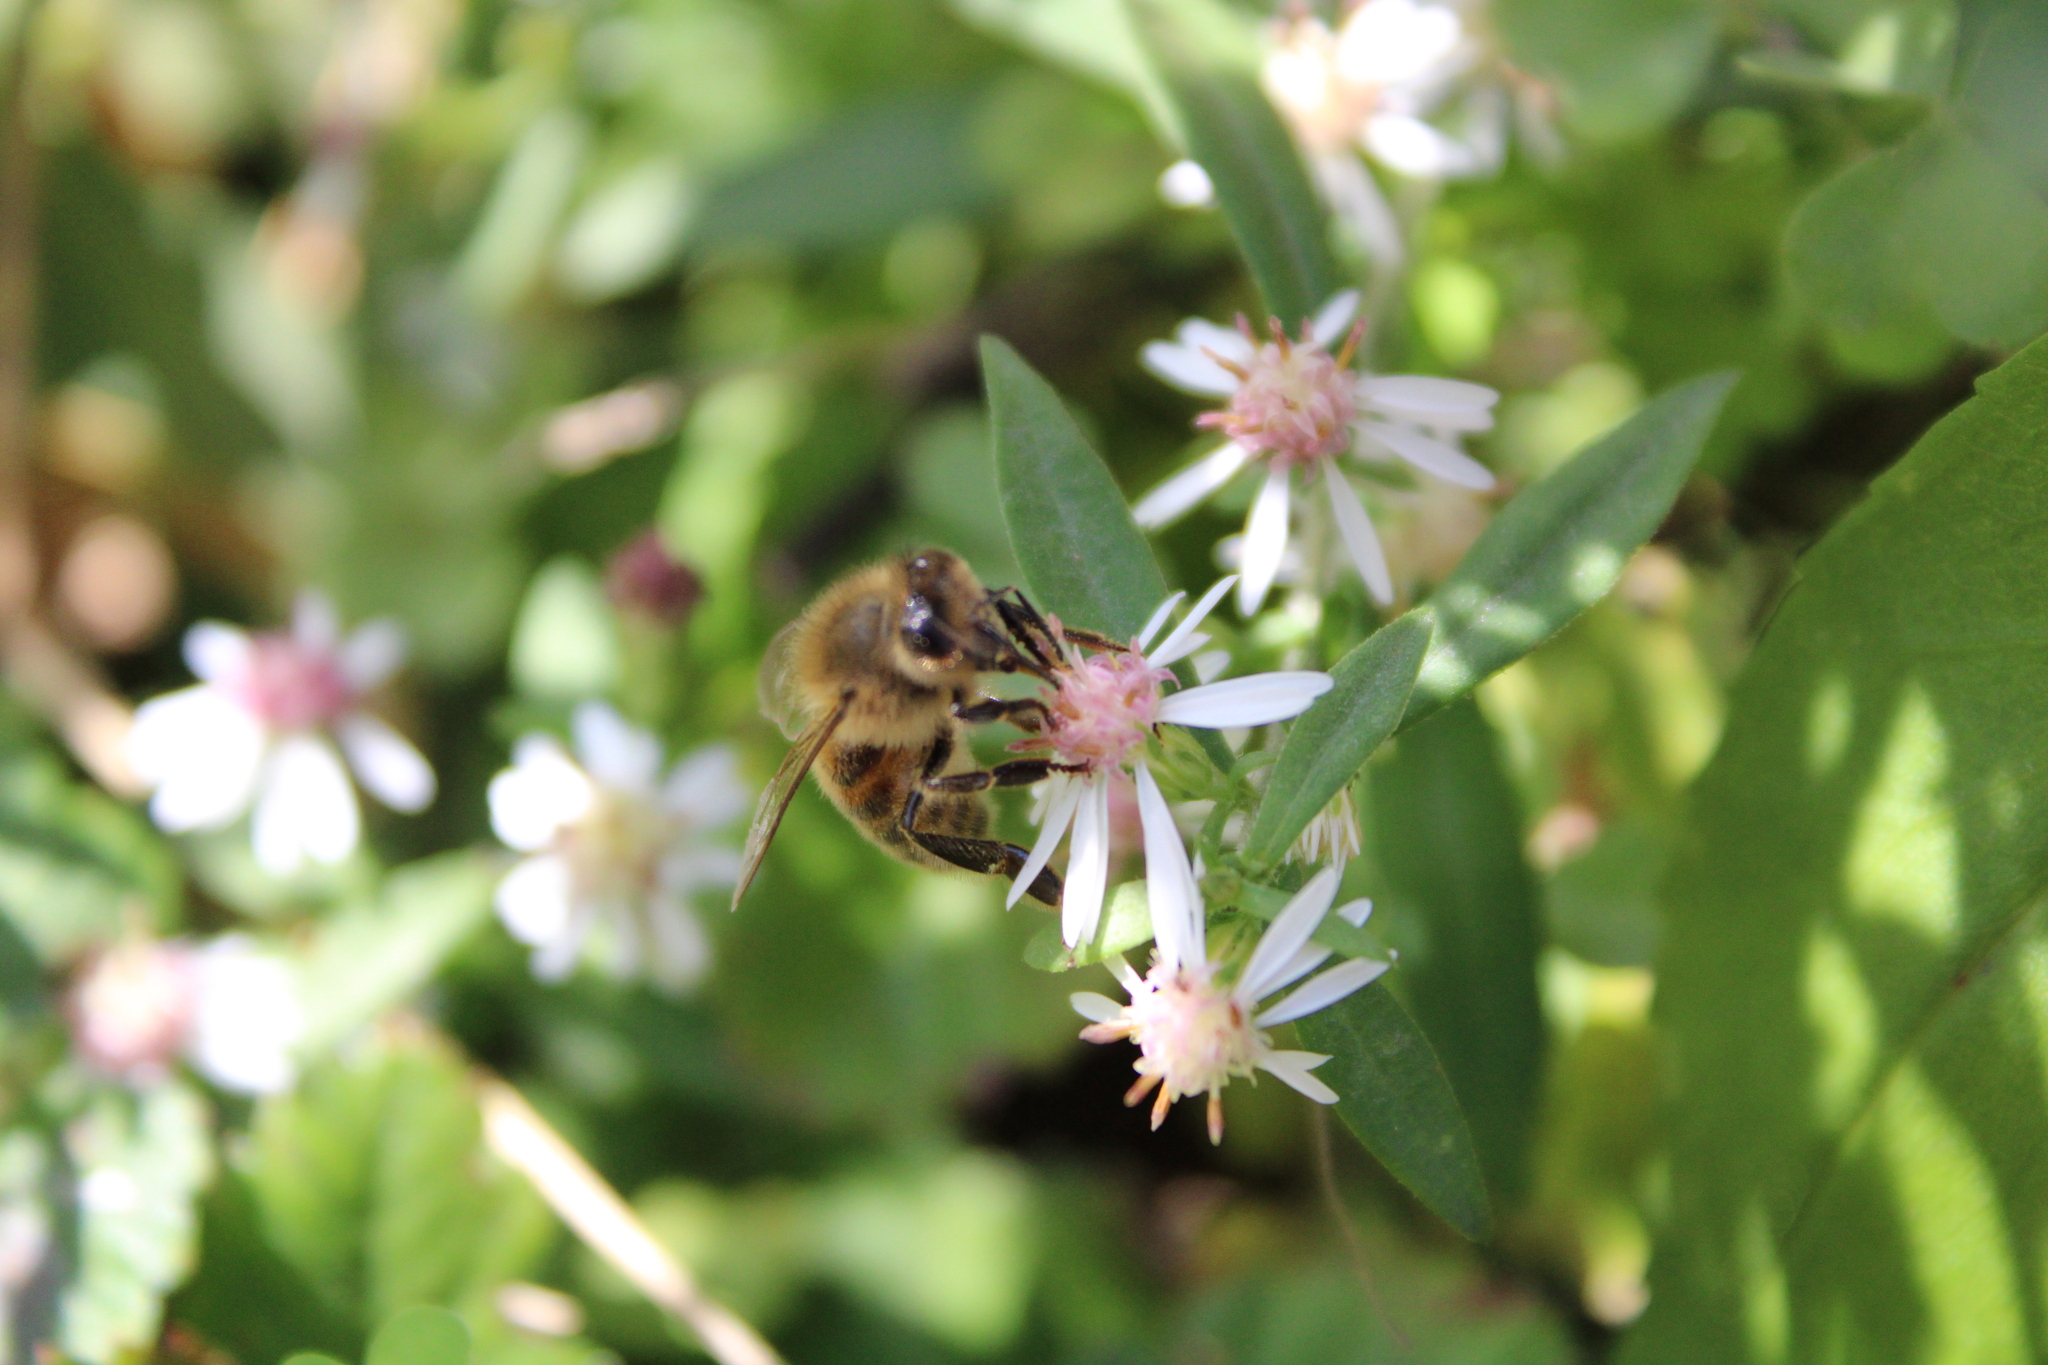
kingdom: Animalia
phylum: Arthropoda
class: Insecta
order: Hymenoptera
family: Apidae
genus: Apis
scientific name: Apis mellifera
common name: Honey bee
